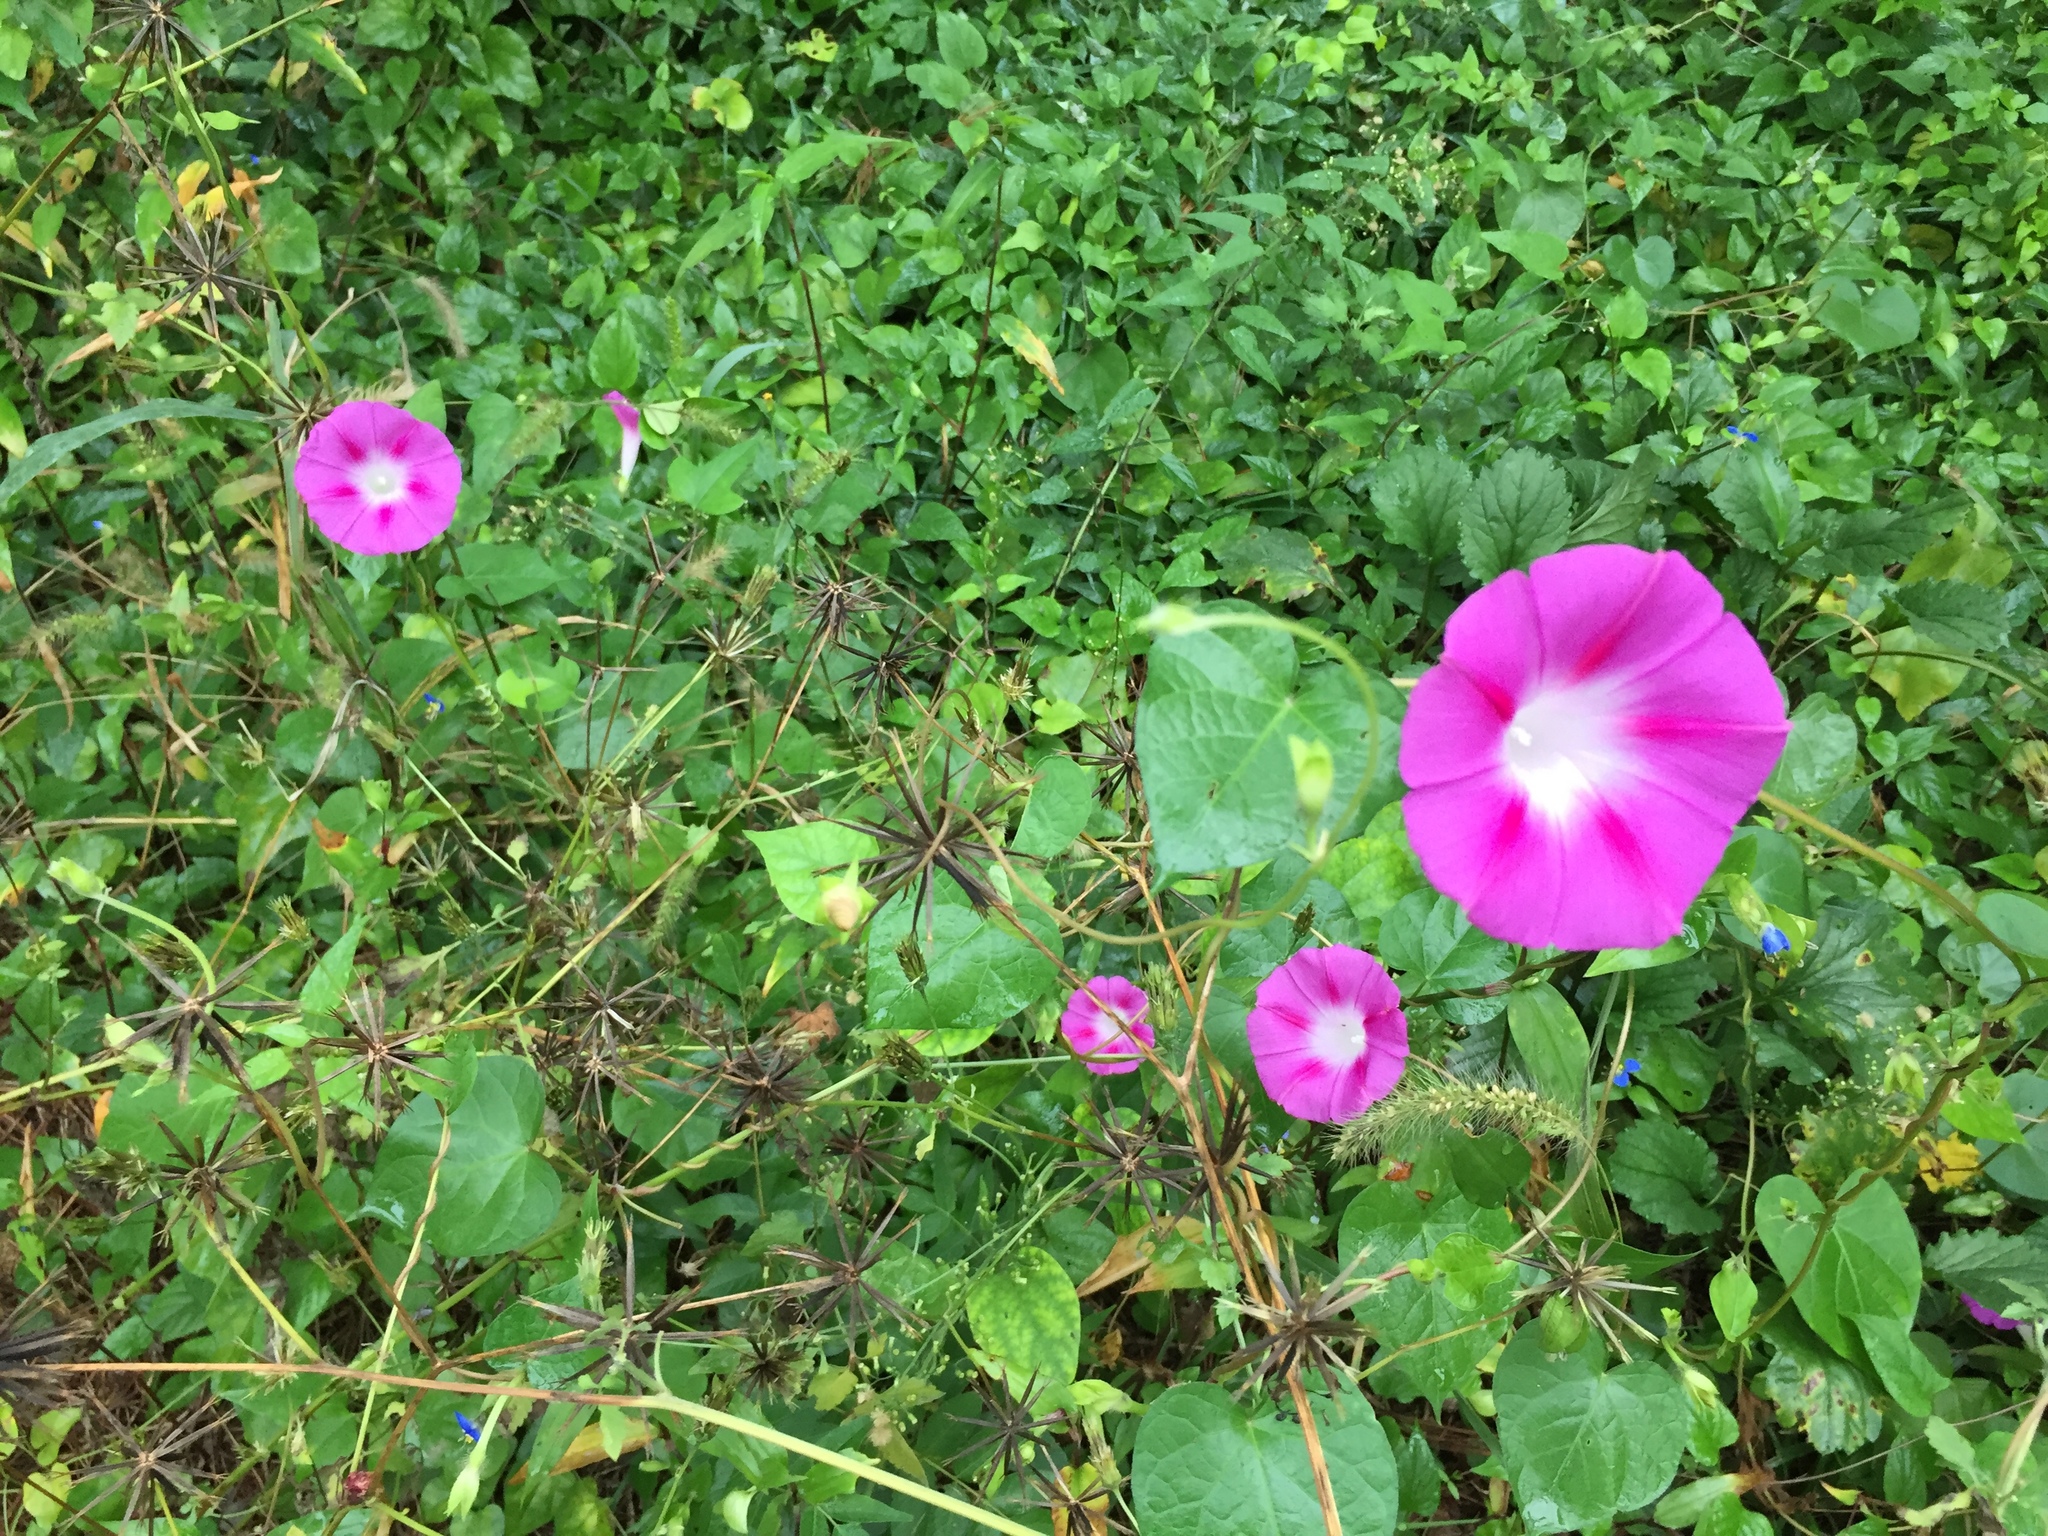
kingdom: Plantae
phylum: Tracheophyta
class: Magnoliopsida
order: Solanales
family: Convolvulaceae
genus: Ipomoea
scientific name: Ipomoea purpurea
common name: Common morning-glory
